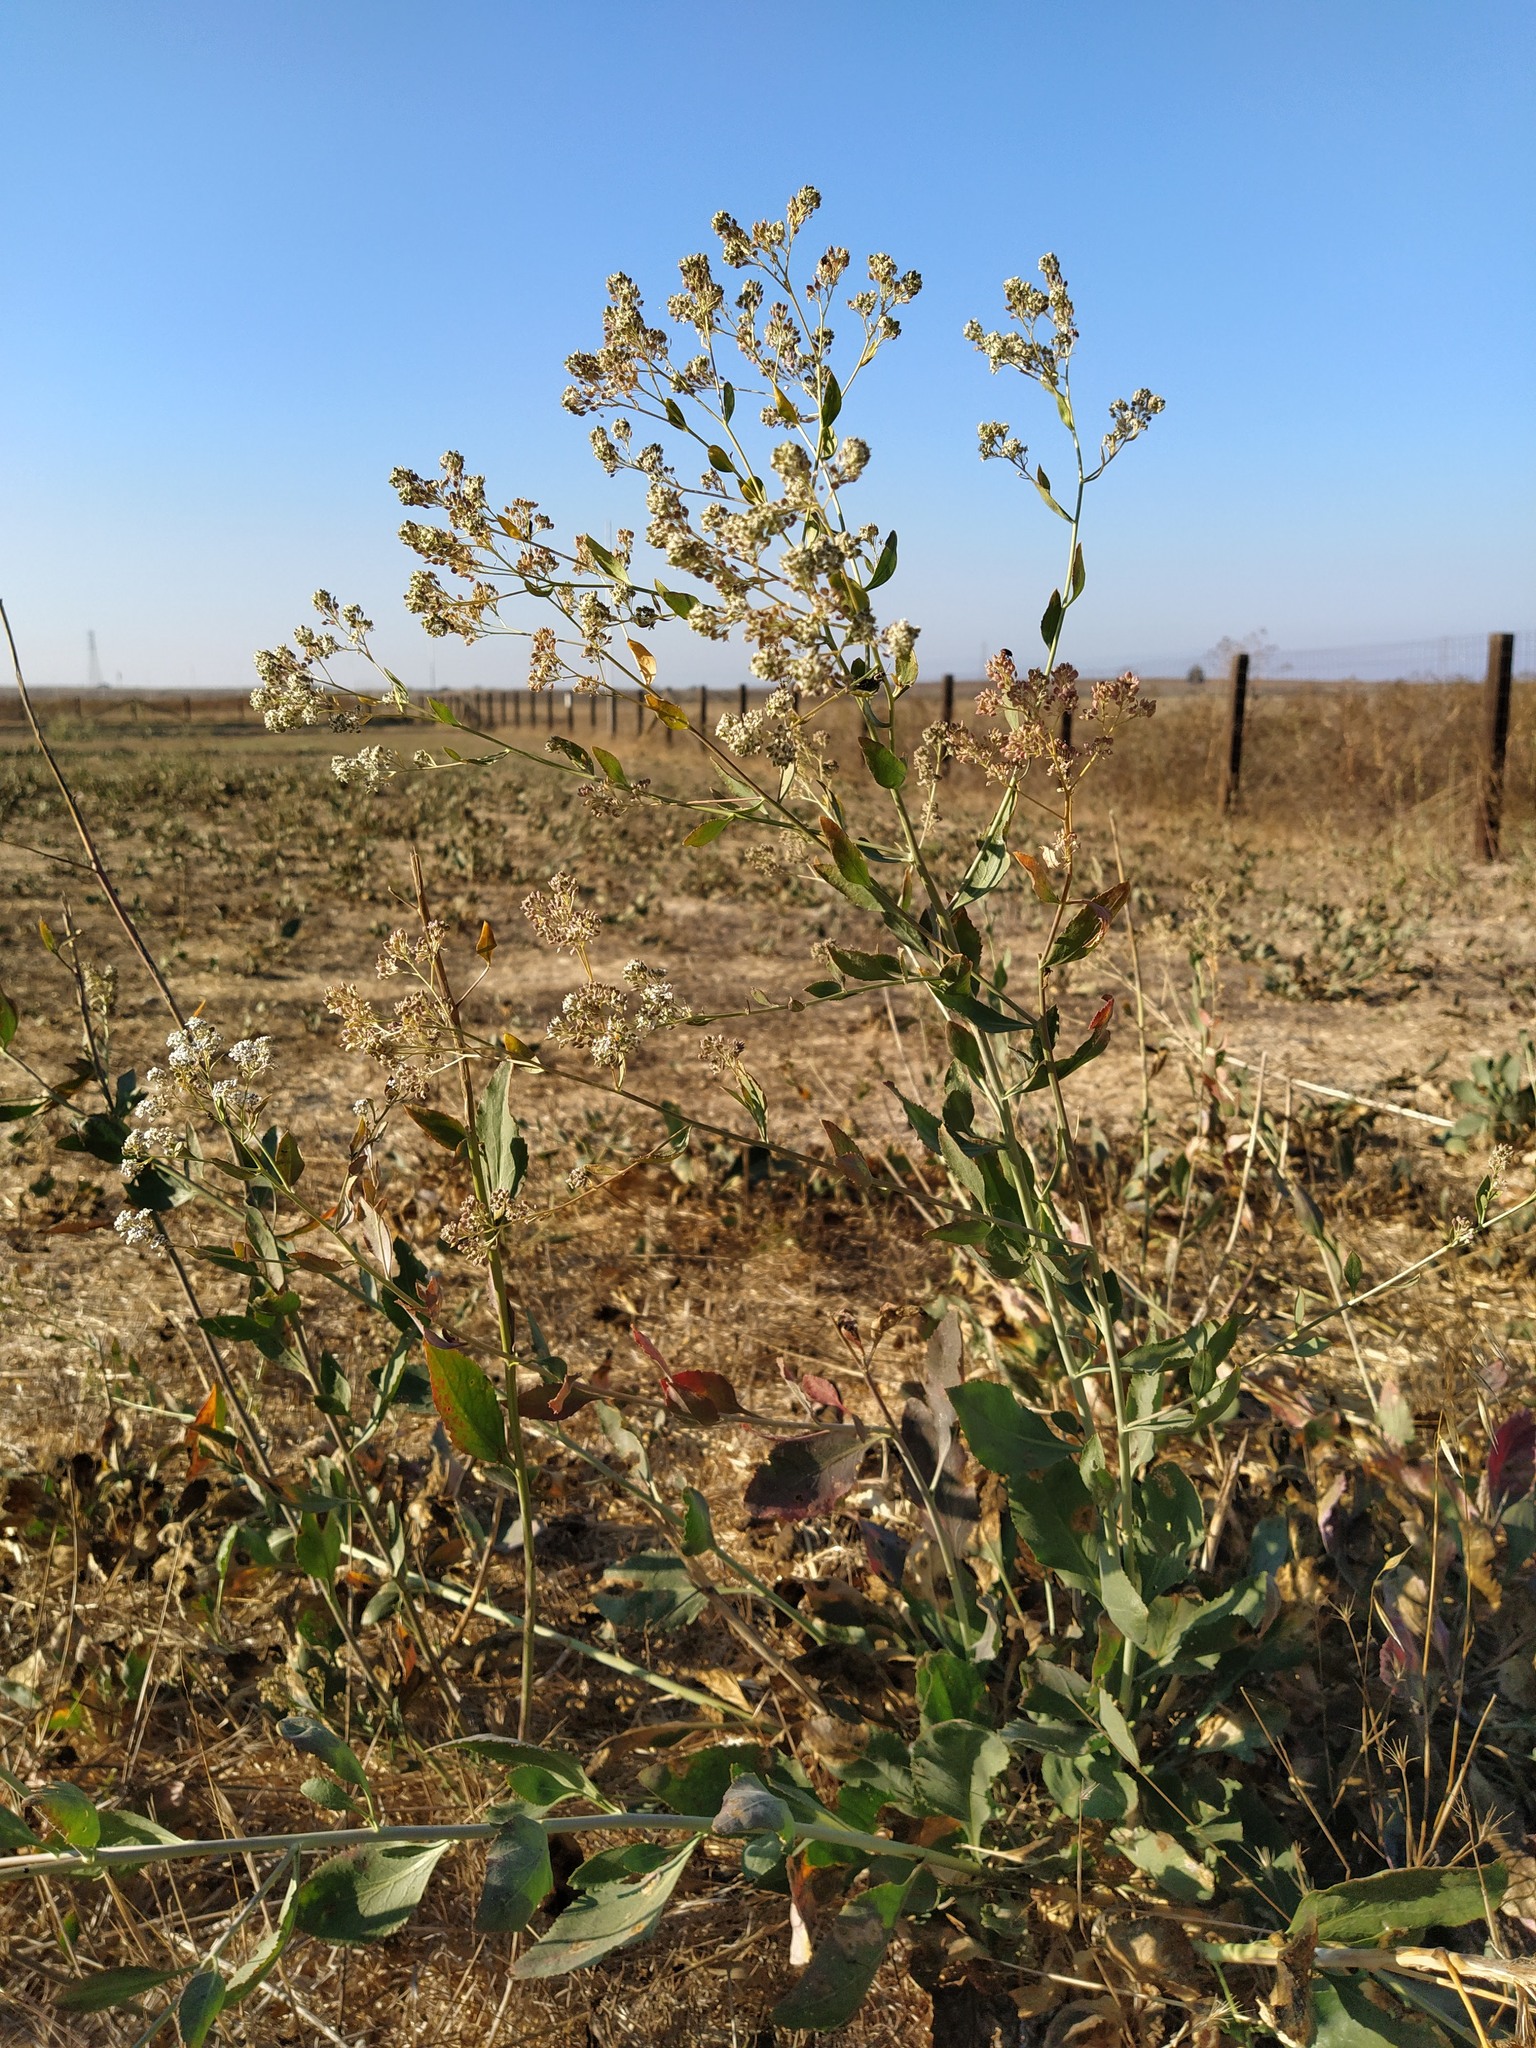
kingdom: Plantae
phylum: Tracheophyta
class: Magnoliopsida
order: Brassicales
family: Brassicaceae
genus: Lepidium
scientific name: Lepidium latifolium
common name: Dittander
